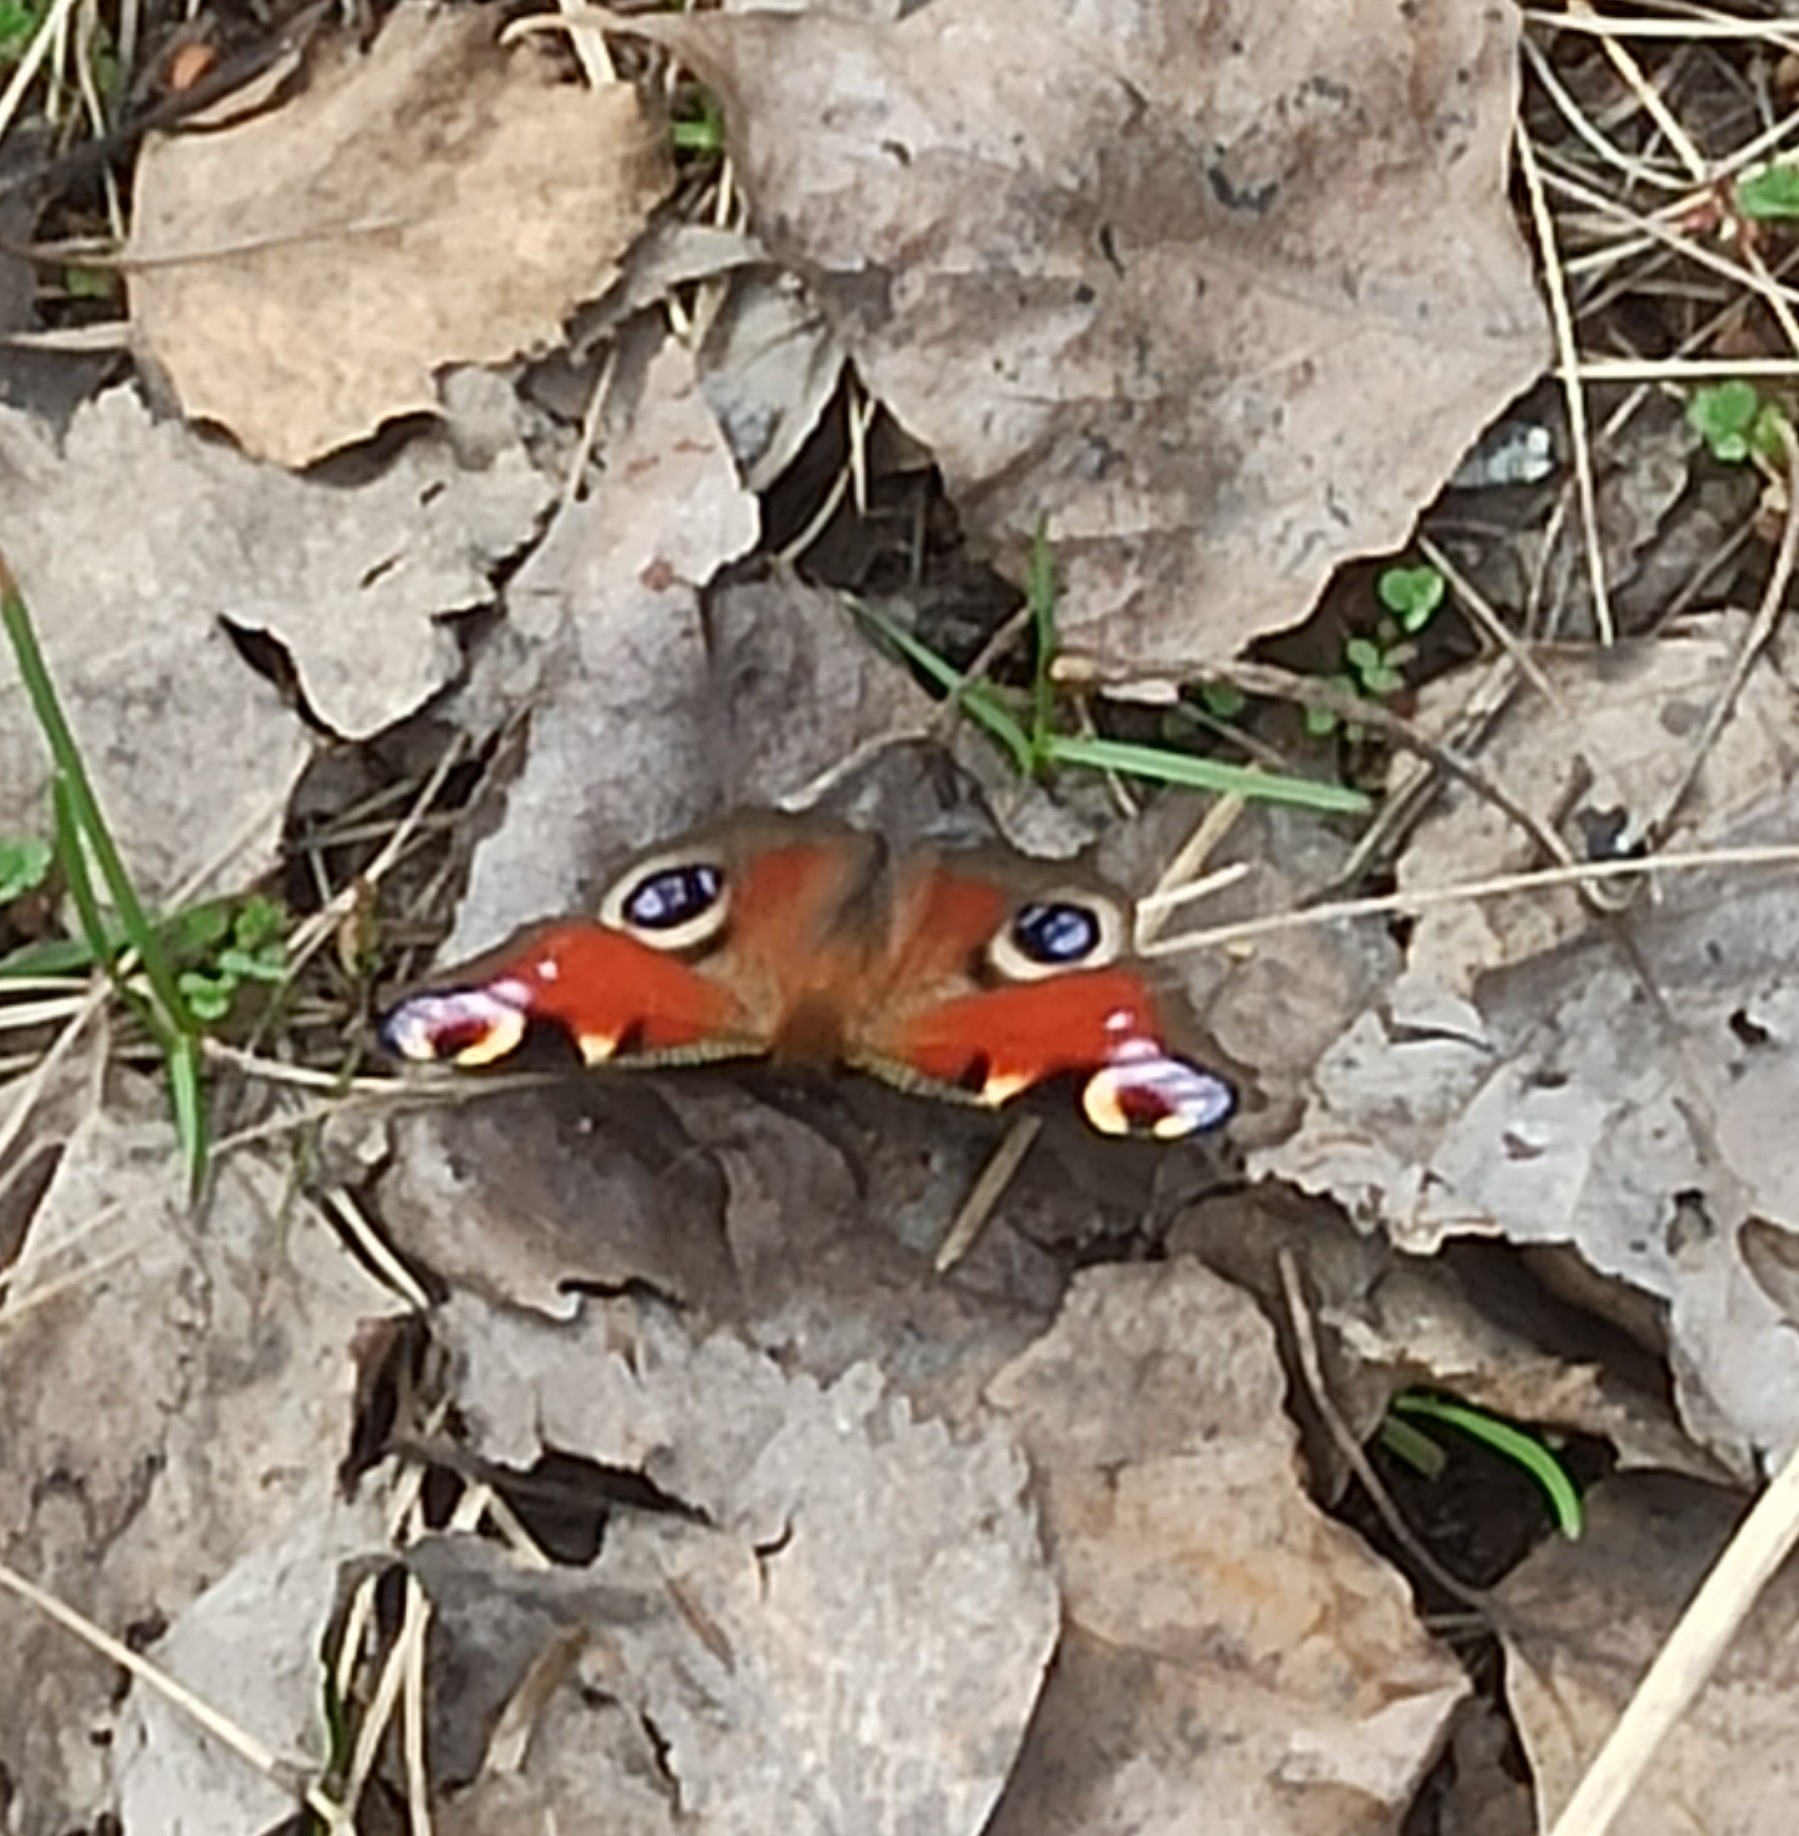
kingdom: Animalia
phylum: Arthropoda
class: Insecta
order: Lepidoptera
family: Nymphalidae
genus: Aglais
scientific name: Aglais io
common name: Peacock
